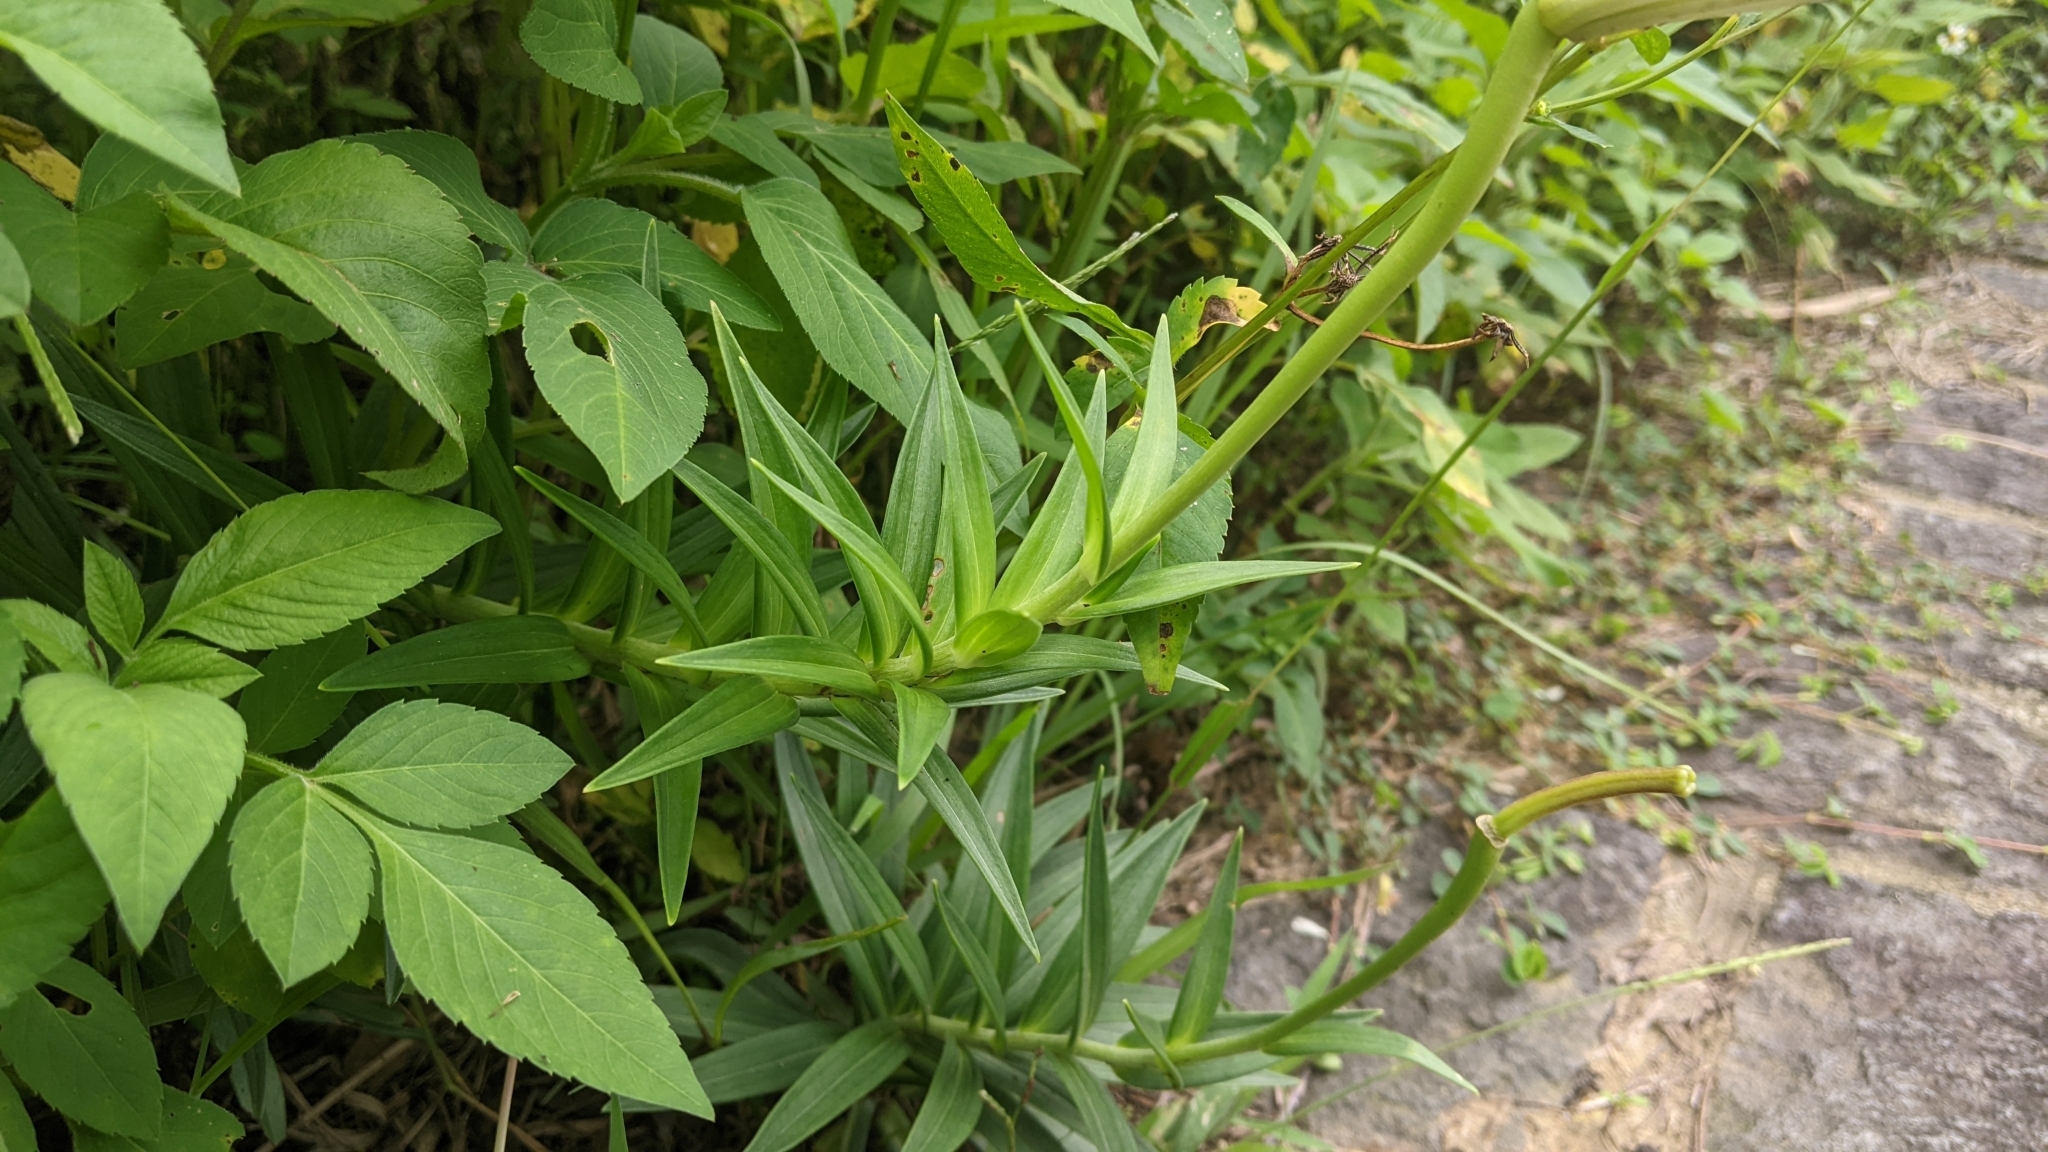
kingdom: Plantae
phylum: Tracheophyta
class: Liliopsida
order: Liliales
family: Liliaceae
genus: Lilium
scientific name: Lilium longiflorum
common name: Easter lily
